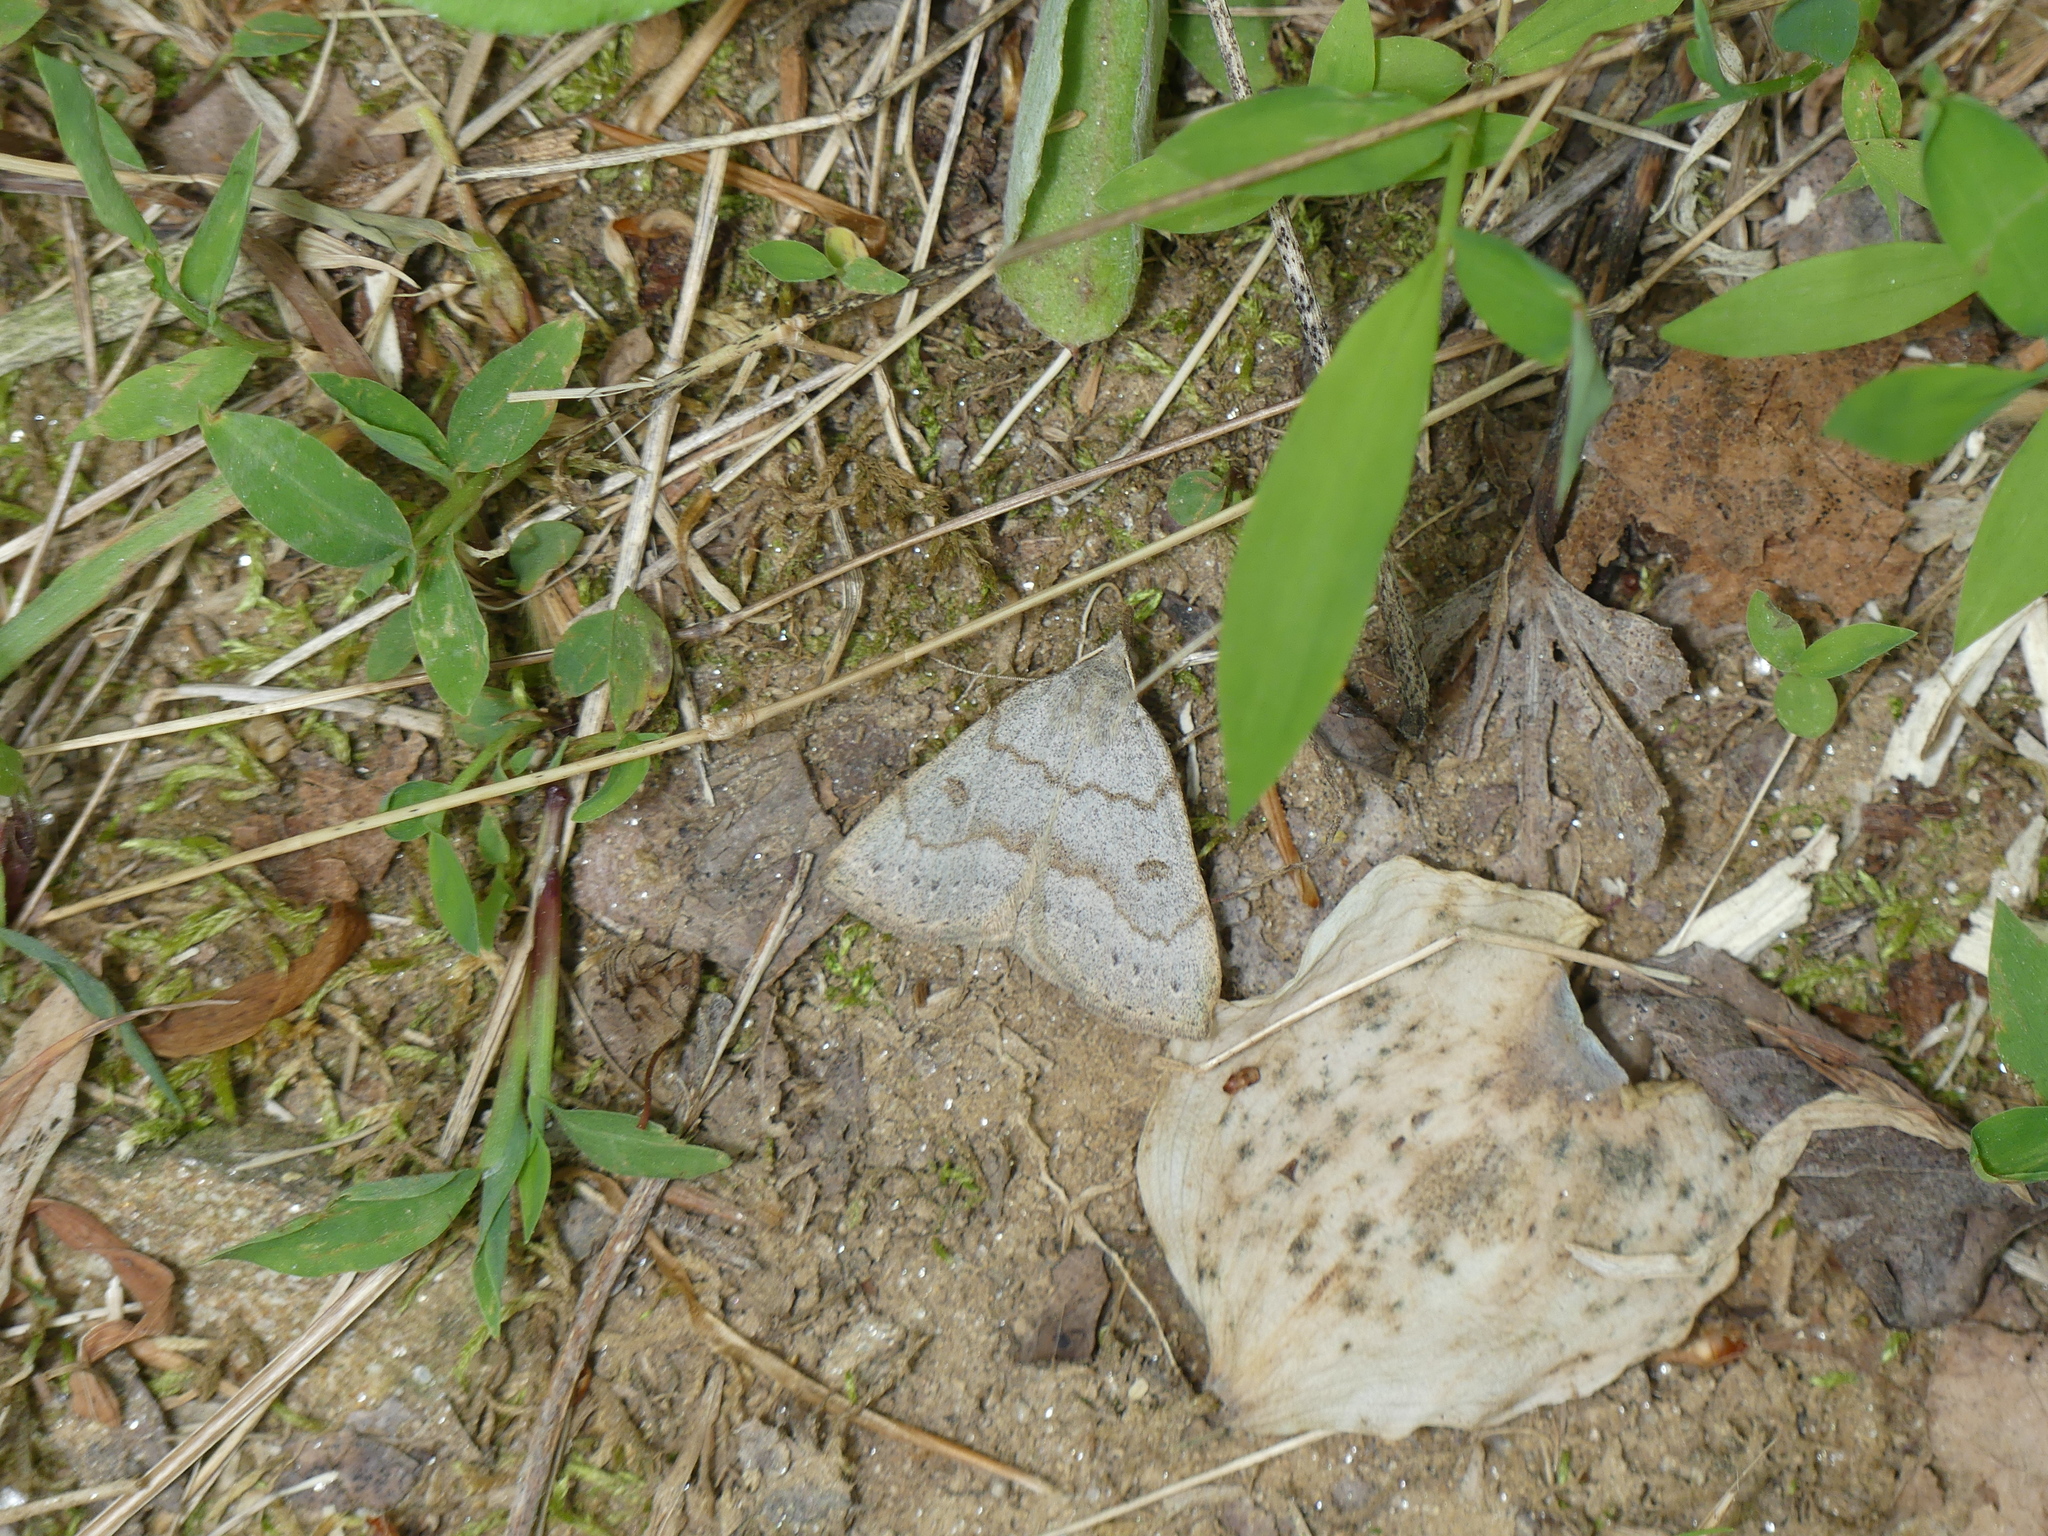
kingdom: Animalia
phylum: Arthropoda
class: Insecta
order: Lepidoptera
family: Erebidae
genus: Macrochilo
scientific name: Macrochilo morbidalis
